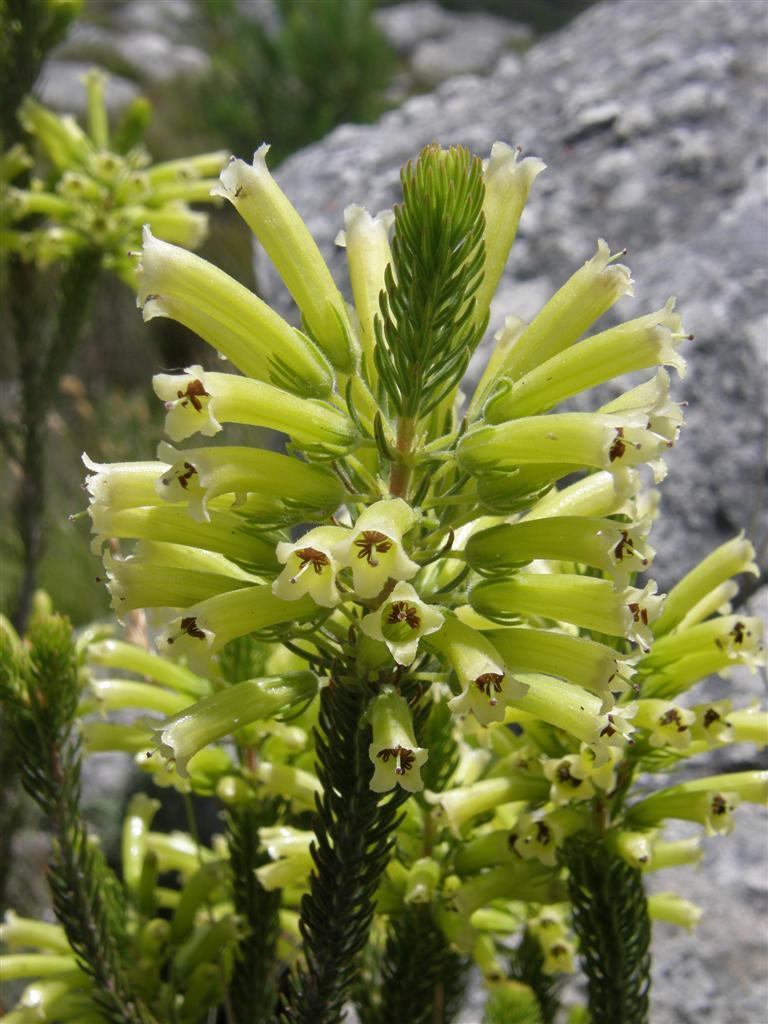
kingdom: Plantae
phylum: Tracheophyta
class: Magnoliopsida
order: Ericales
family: Ericaceae
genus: Erica
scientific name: Erica viscaria
